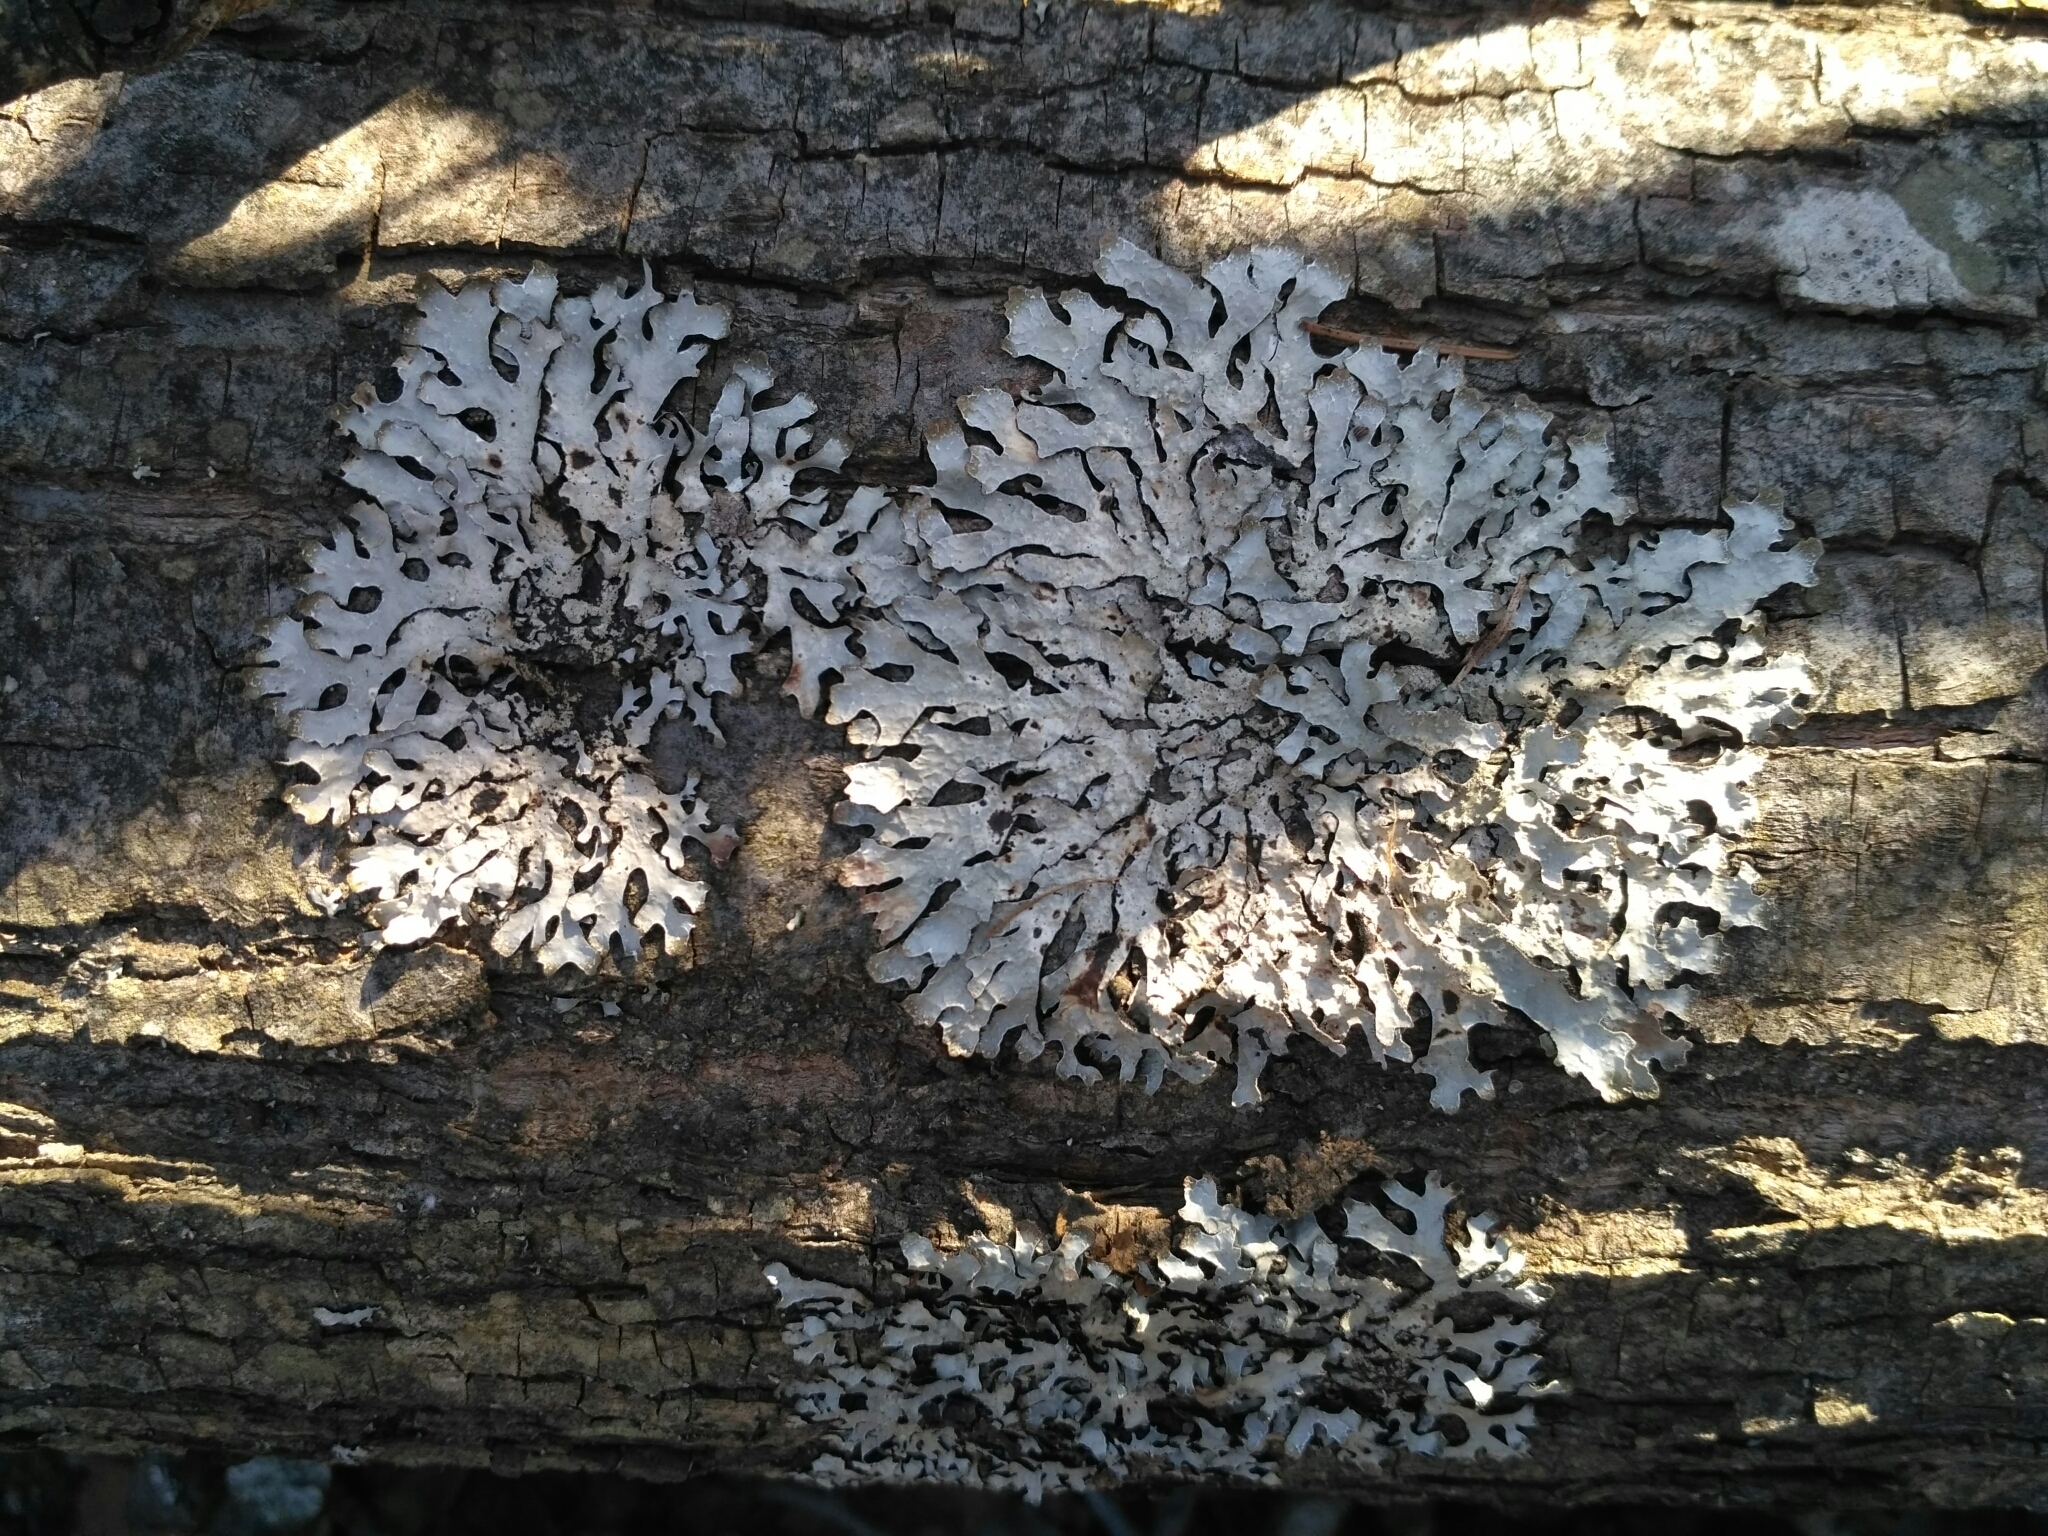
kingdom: Fungi
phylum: Ascomycota
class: Lecanoromycetes
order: Lecanorales
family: Parmeliaceae
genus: Parmelia
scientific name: Parmelia sulcata
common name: Netted shield lichen
